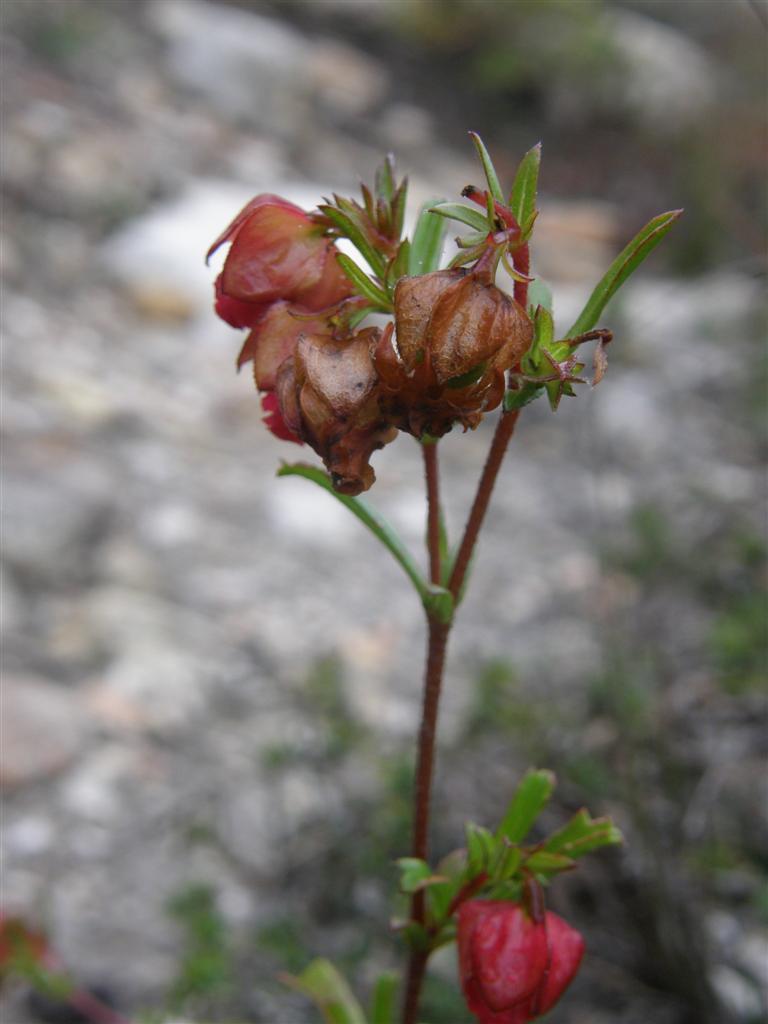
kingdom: Plantae
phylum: Tracheophyta
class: Magnoliopsida
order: Malvales
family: Malvaceae
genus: Hermannia
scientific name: Hermannia angularis
